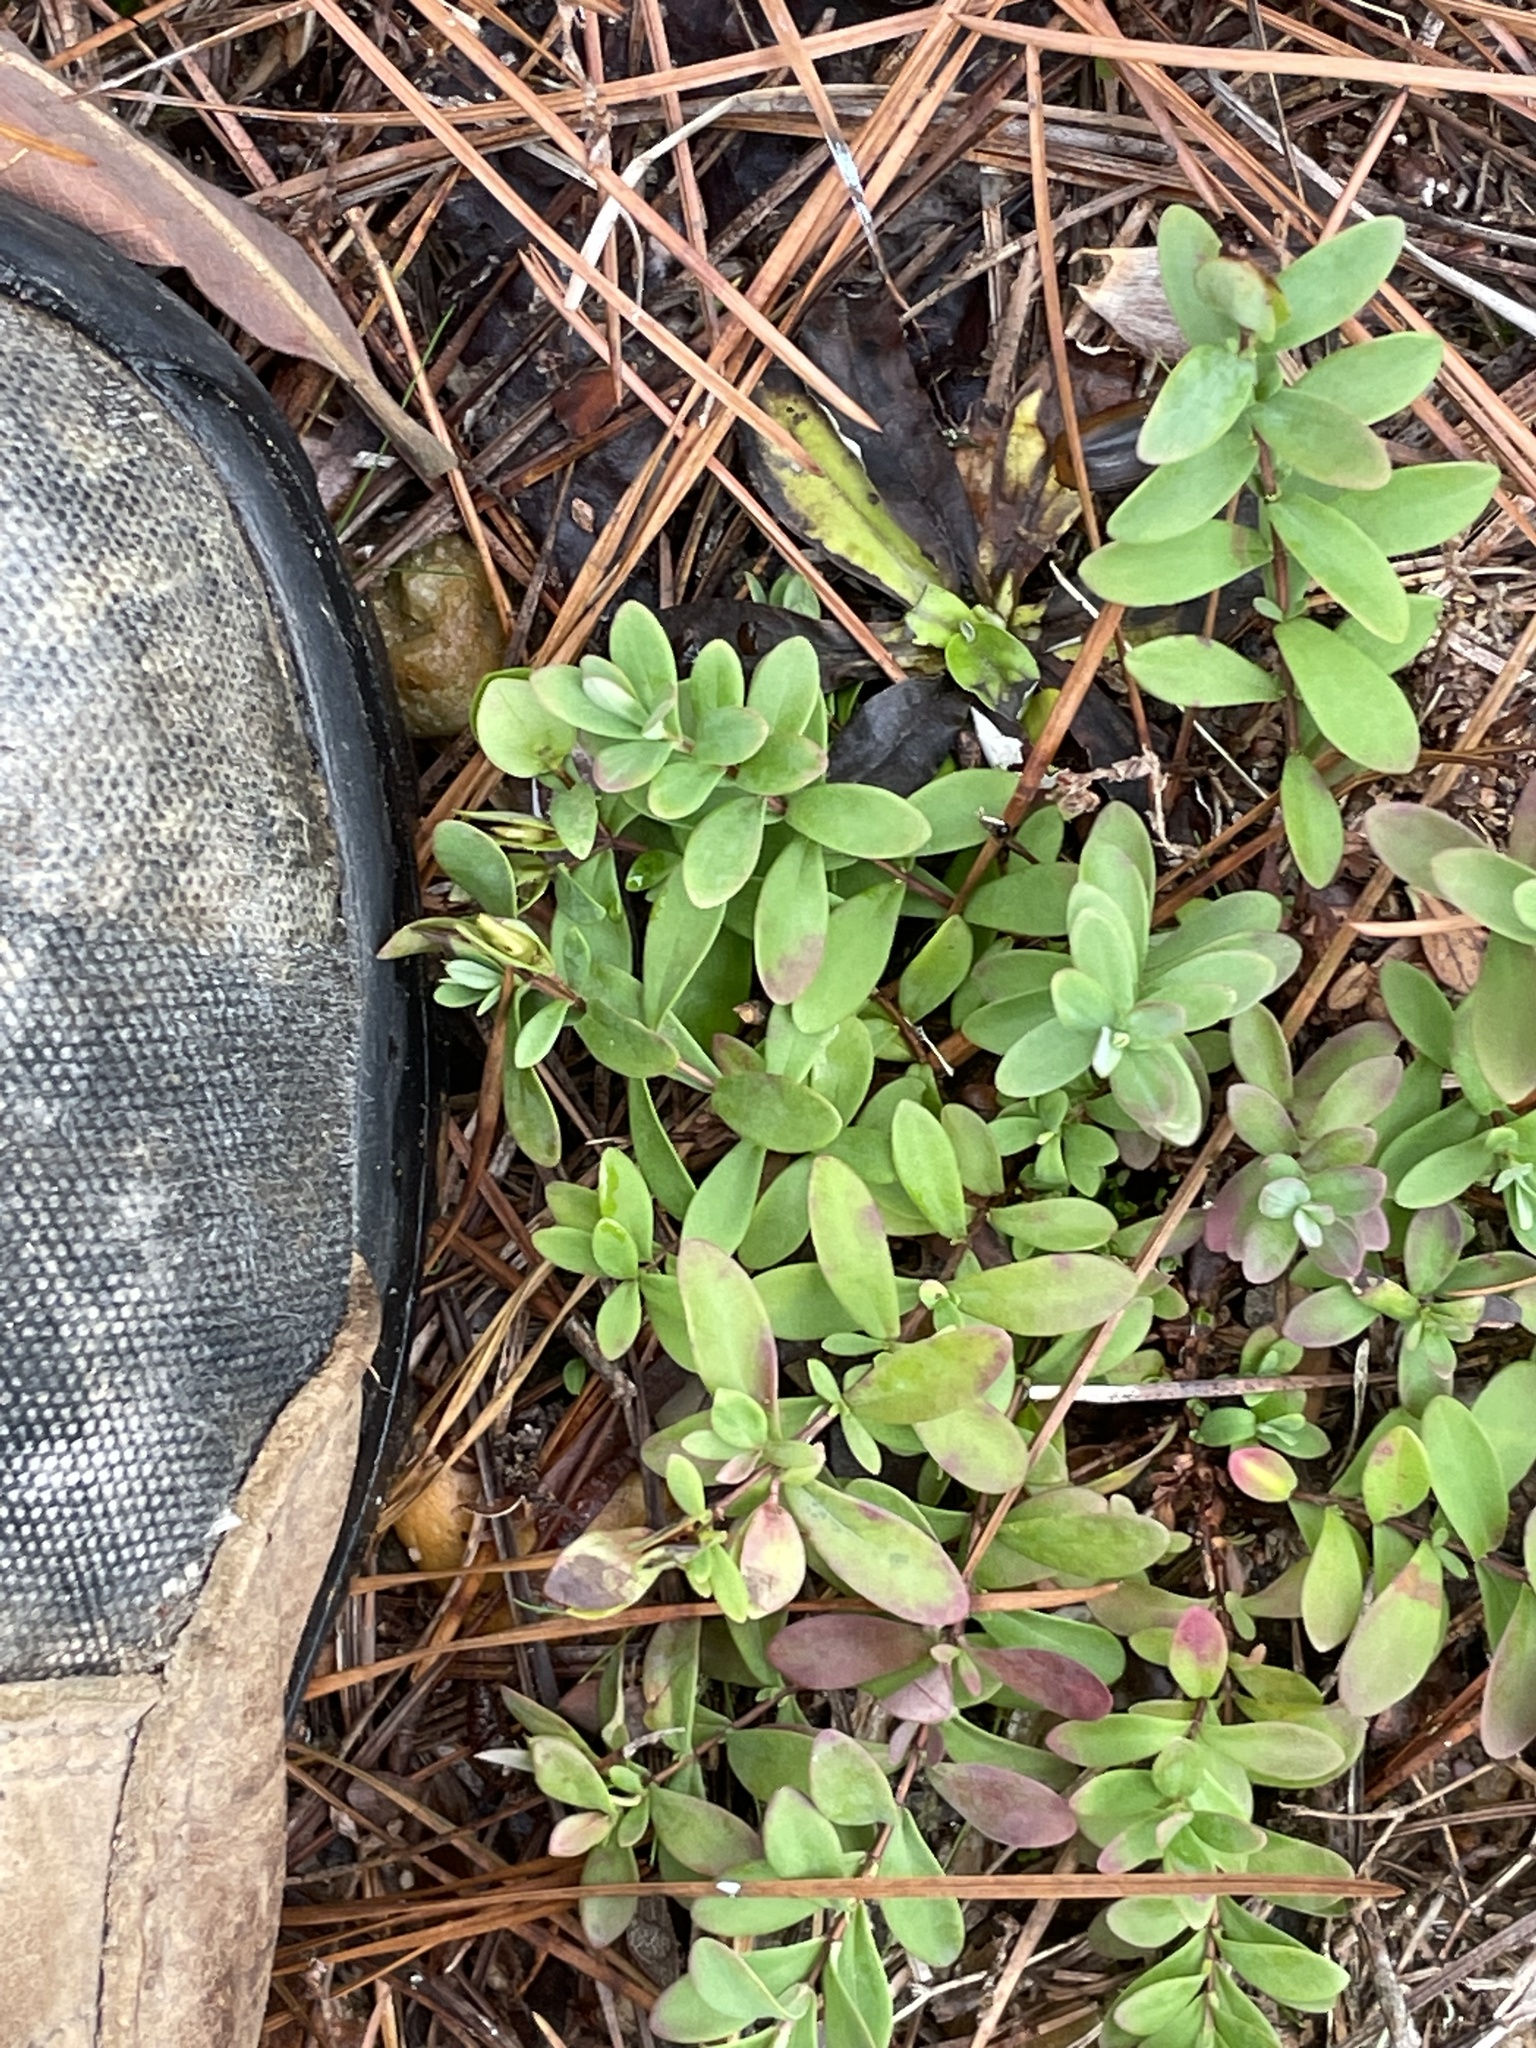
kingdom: Plantae
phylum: Tracheophyta
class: Magnoliopsida
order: Malpighiales
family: Hypericaceae
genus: Hypericum
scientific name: Hypericum hypericoides
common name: St. andrew's cross
